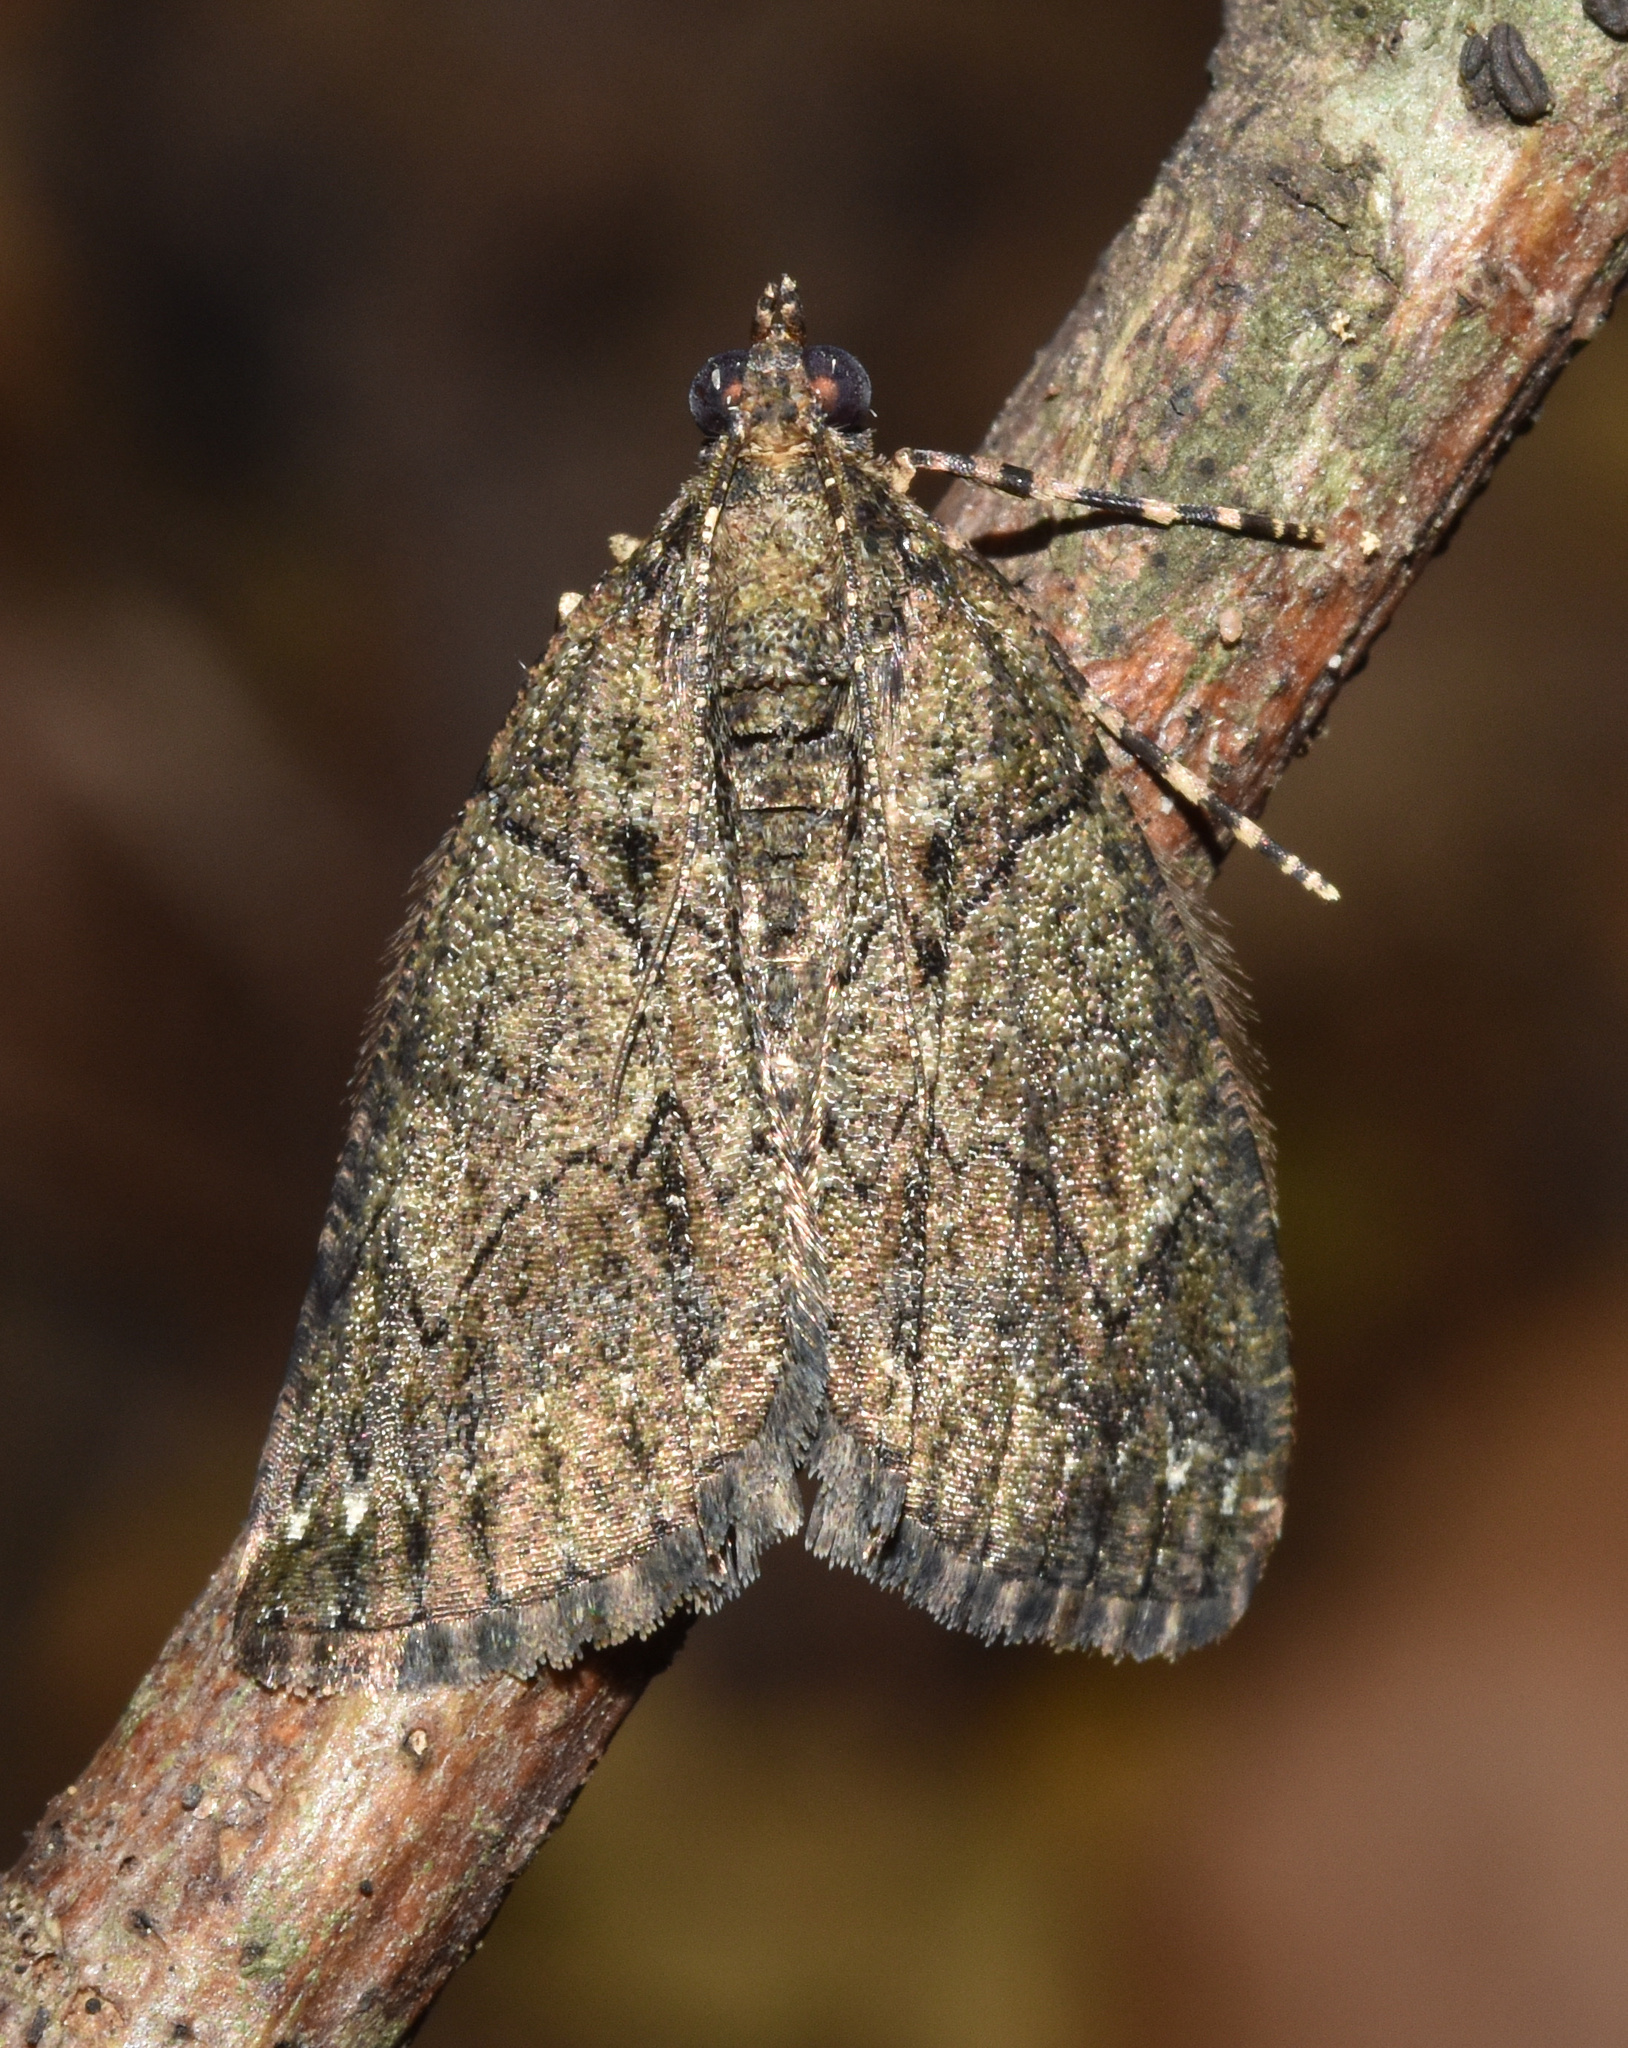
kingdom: Animalia
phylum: Arthropoda
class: Insecta
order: Lepidoptera
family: Geometridae
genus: Xylopteryx
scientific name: Xylopteryx arcuata
